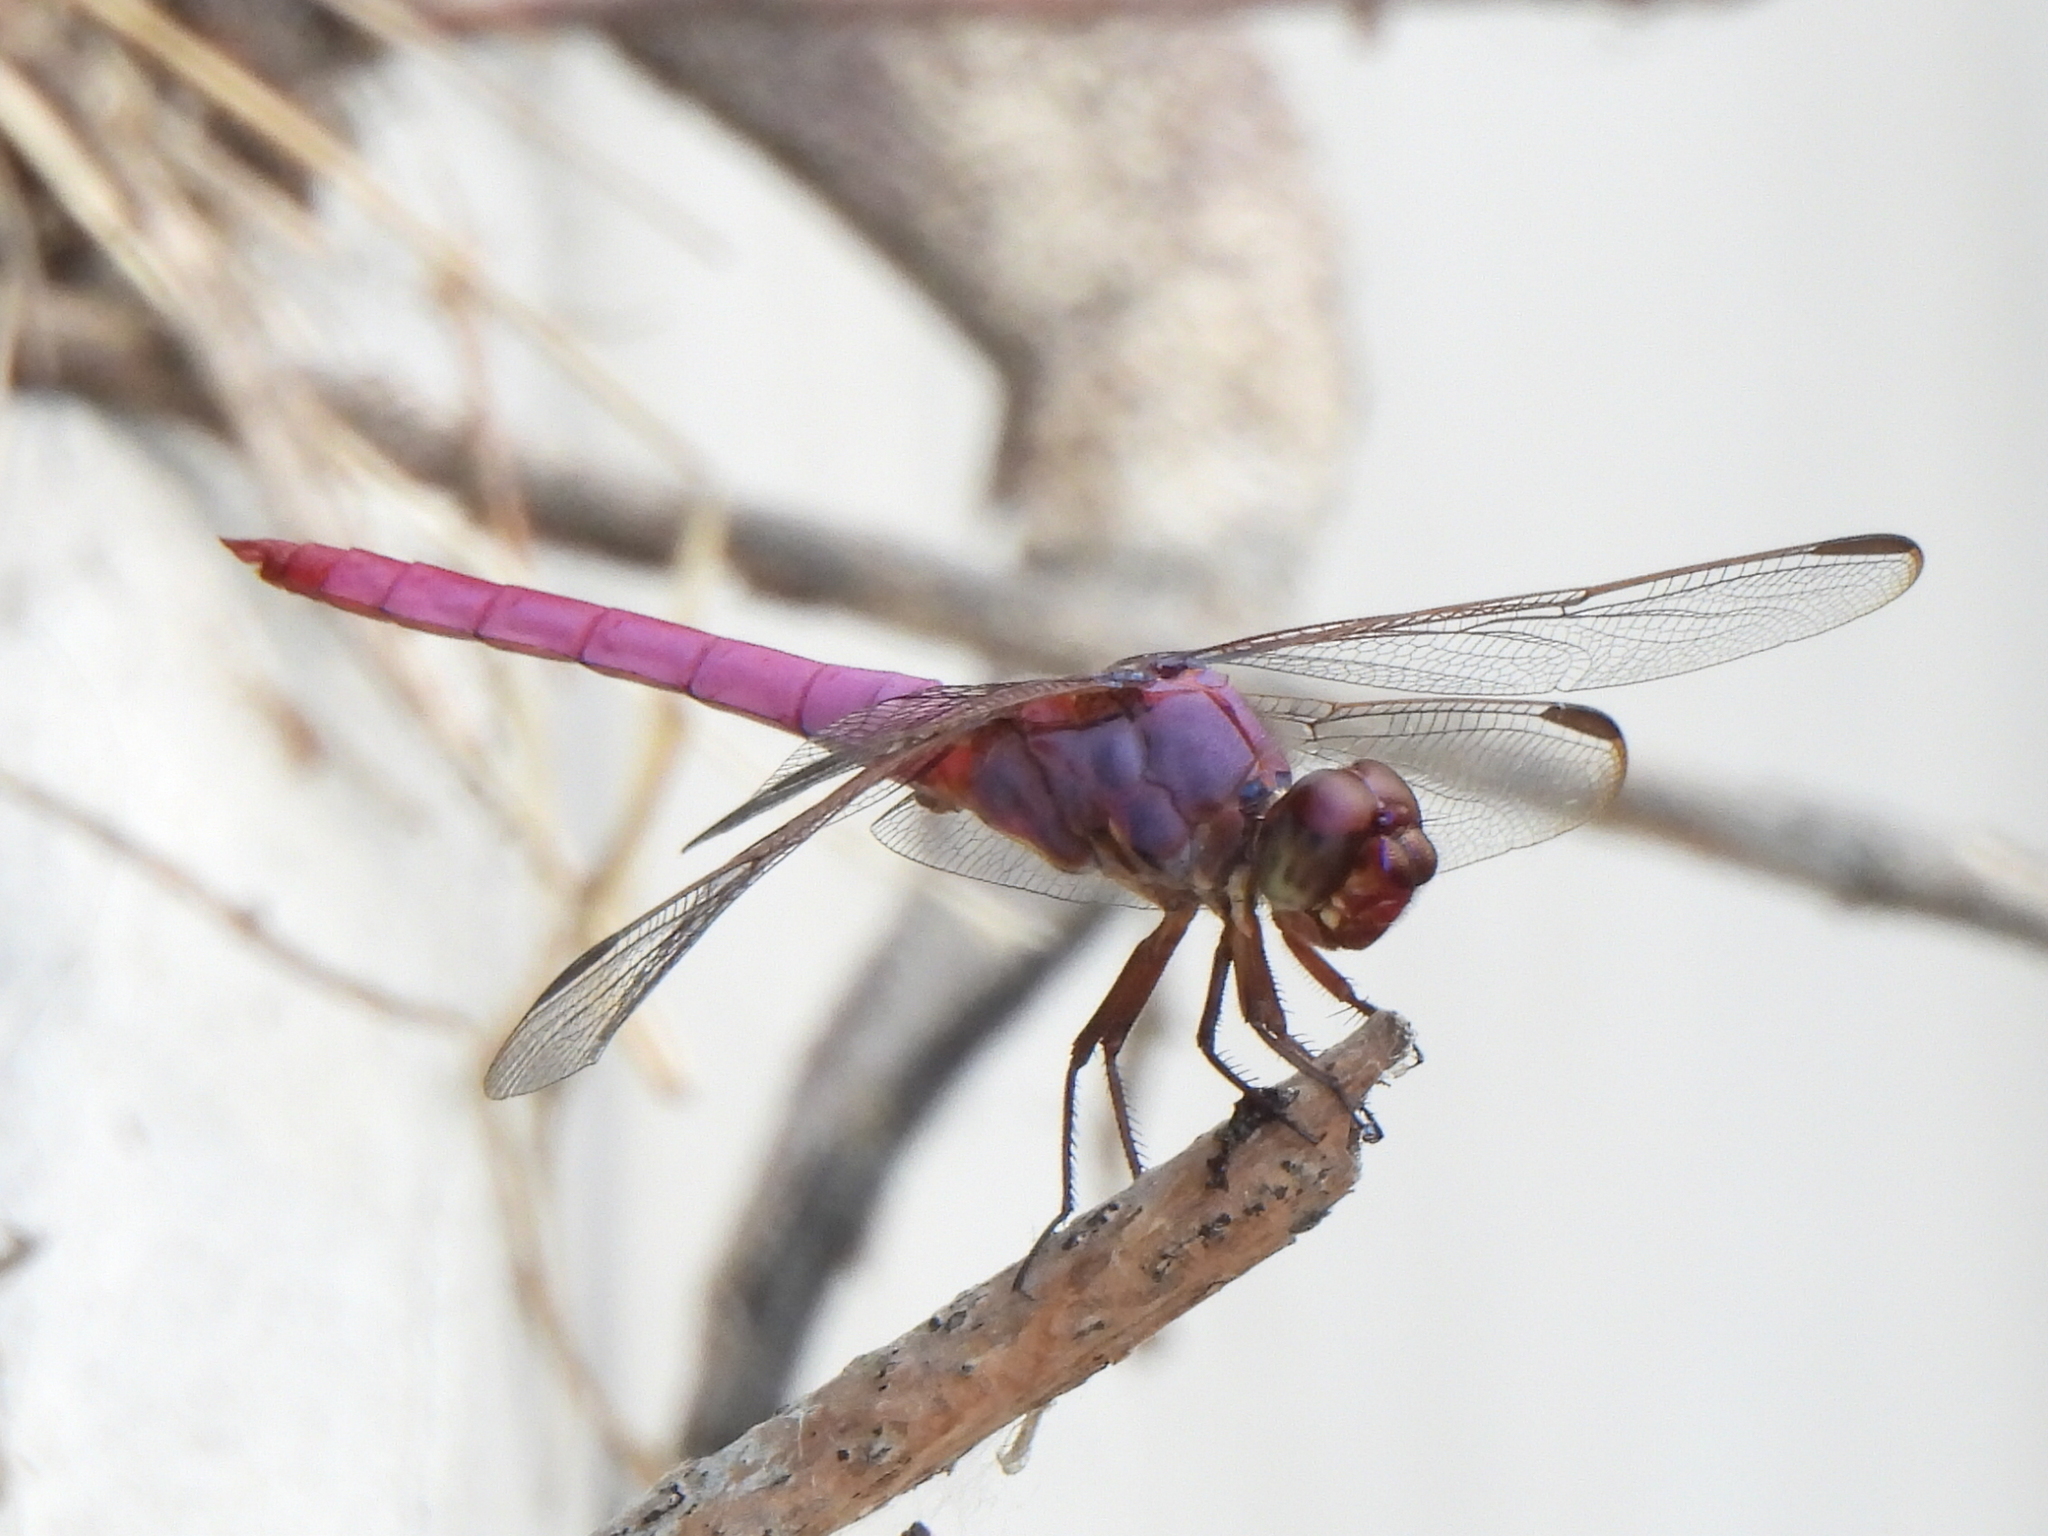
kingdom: Animalia
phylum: Arthropoda
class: Insecta
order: Odonata
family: Libellulidae
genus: Orthemis
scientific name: Orthemis ferruginea
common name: Roseate skimmer
